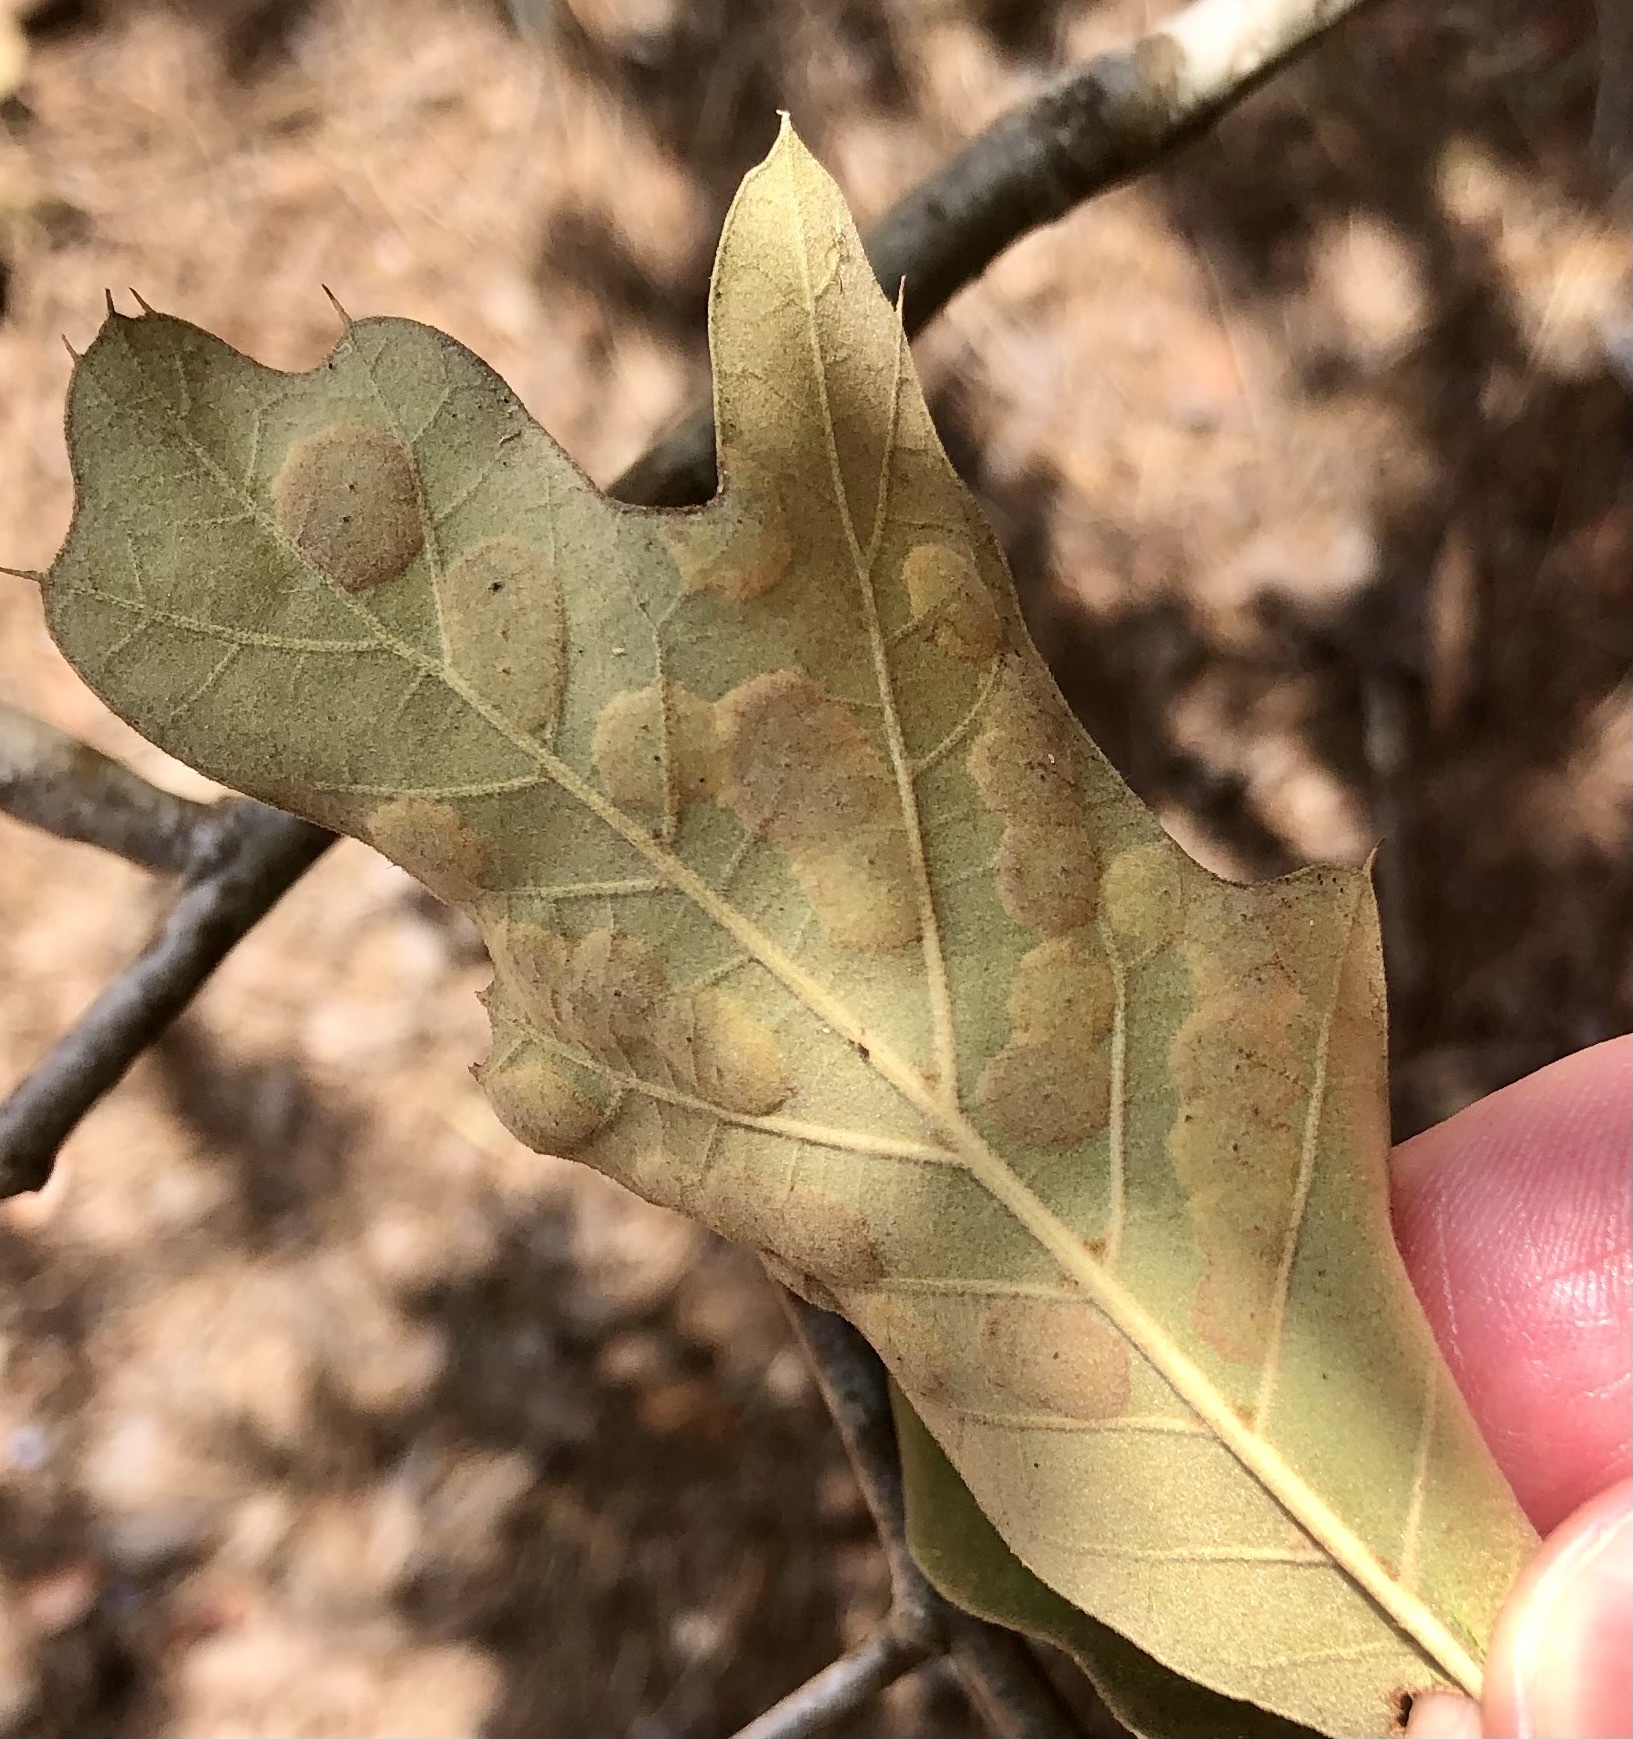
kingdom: Animalia
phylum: Arthropoda
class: Insecta
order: Diptera
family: Cecidomyiidae
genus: Polystepha
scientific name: Polystepha pustuloides
